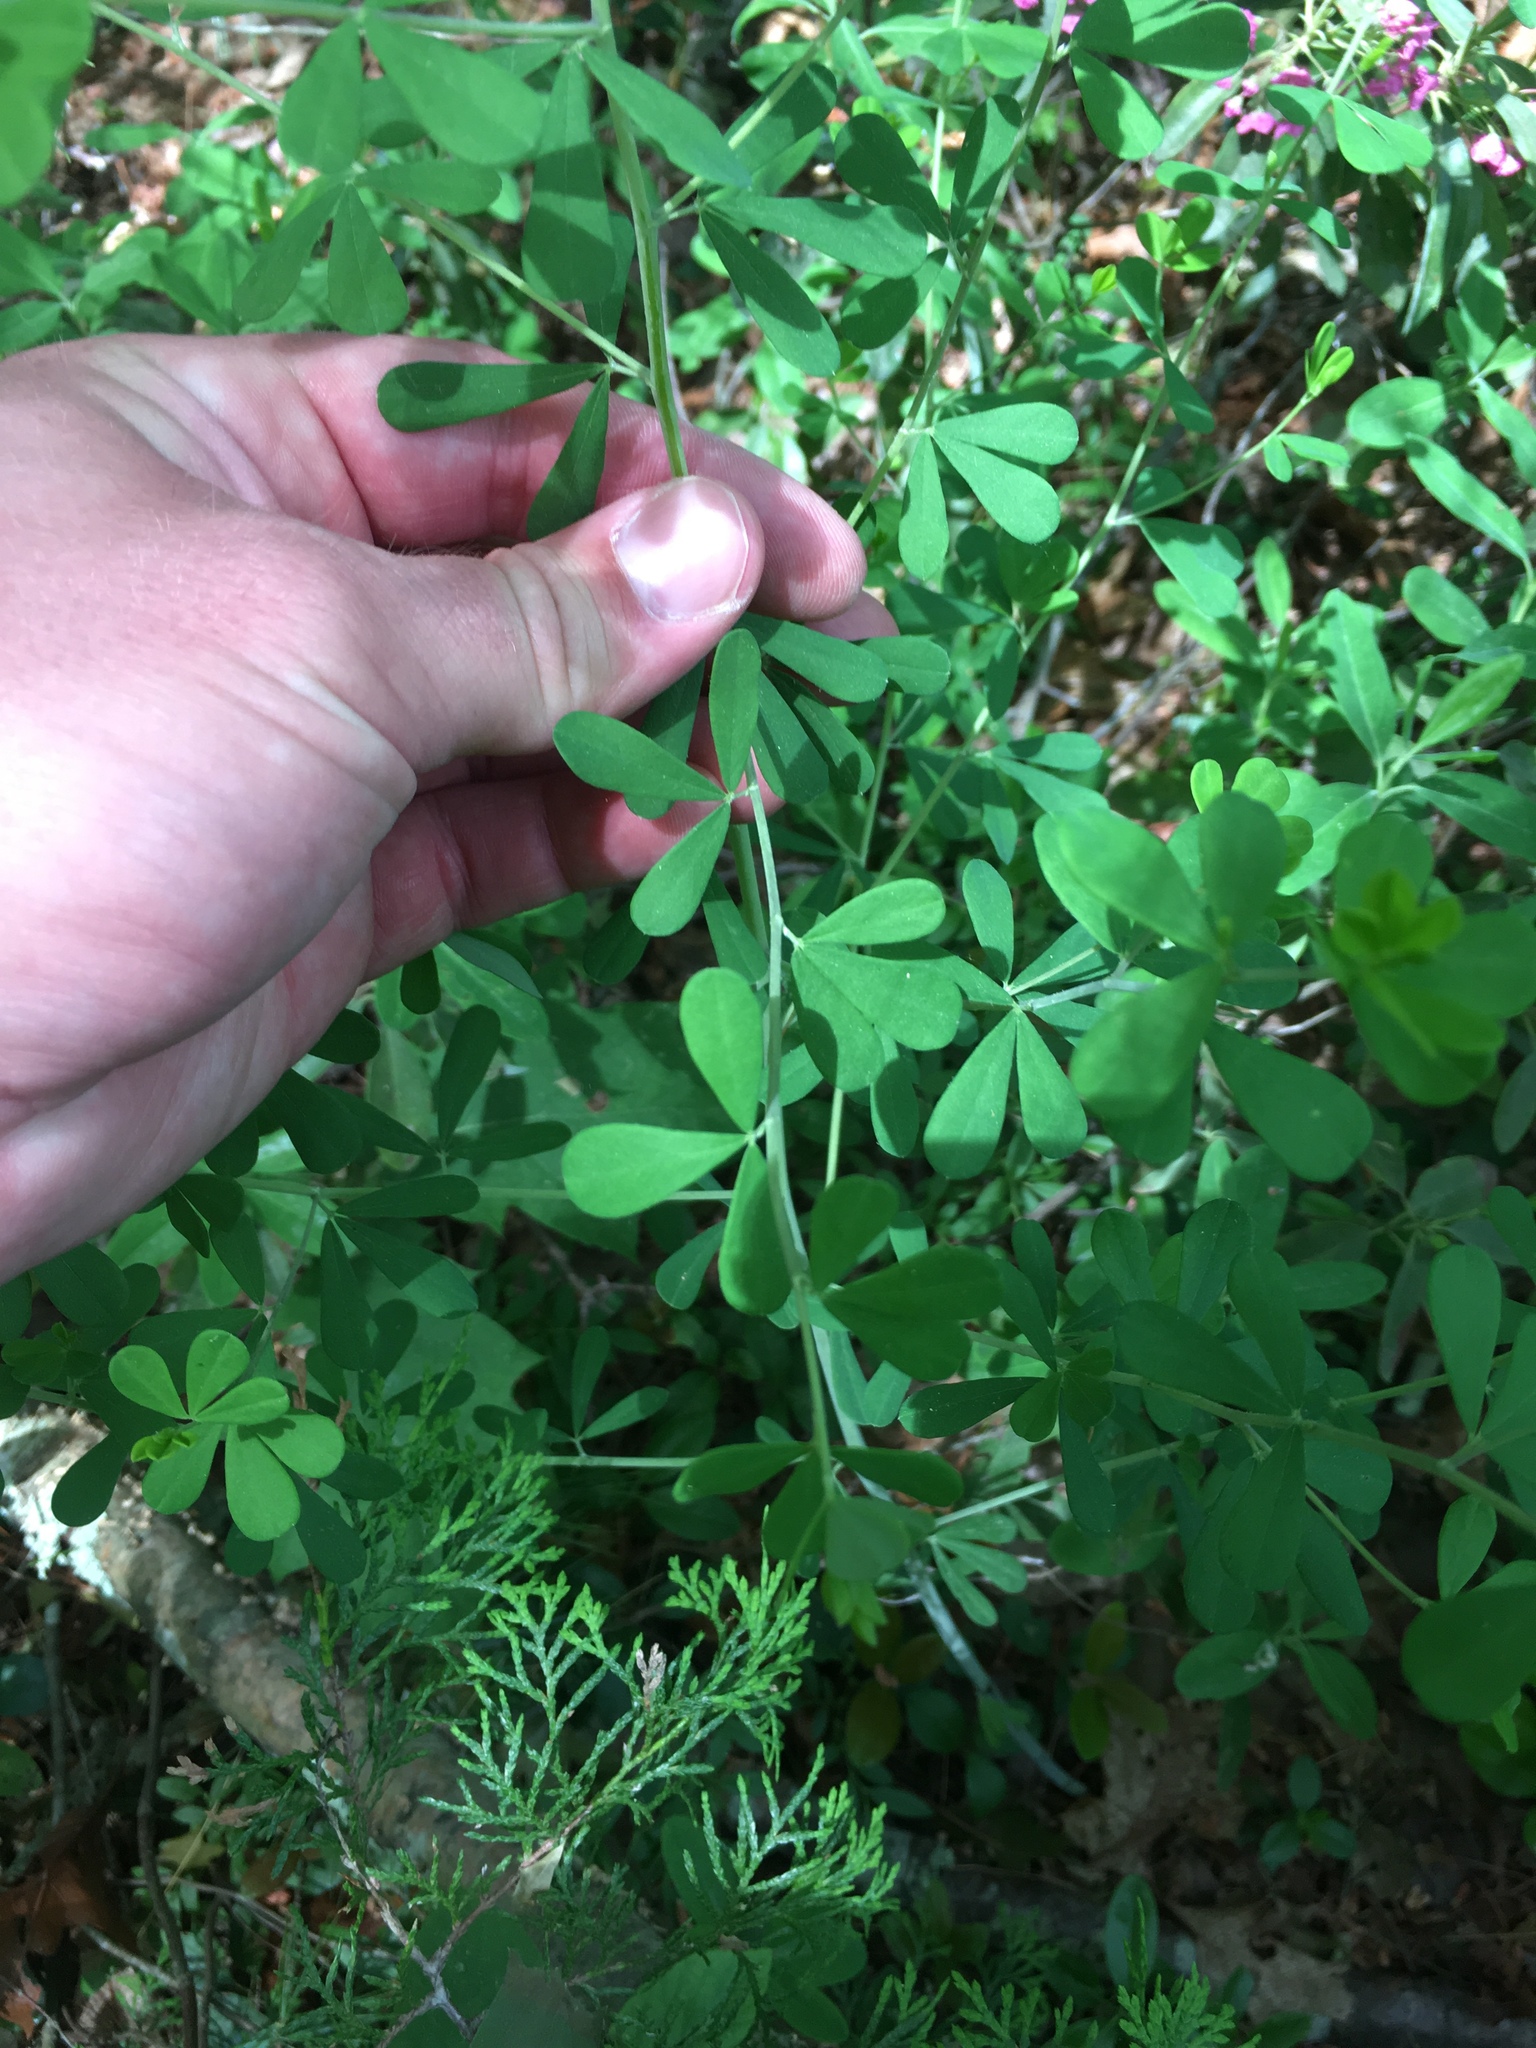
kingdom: Plantae
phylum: Tracheophyta
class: Magnoliopsida
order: Fabales
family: Fabaceae
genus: Baptisia
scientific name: Baptisia tinctoria
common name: Wild indigo
